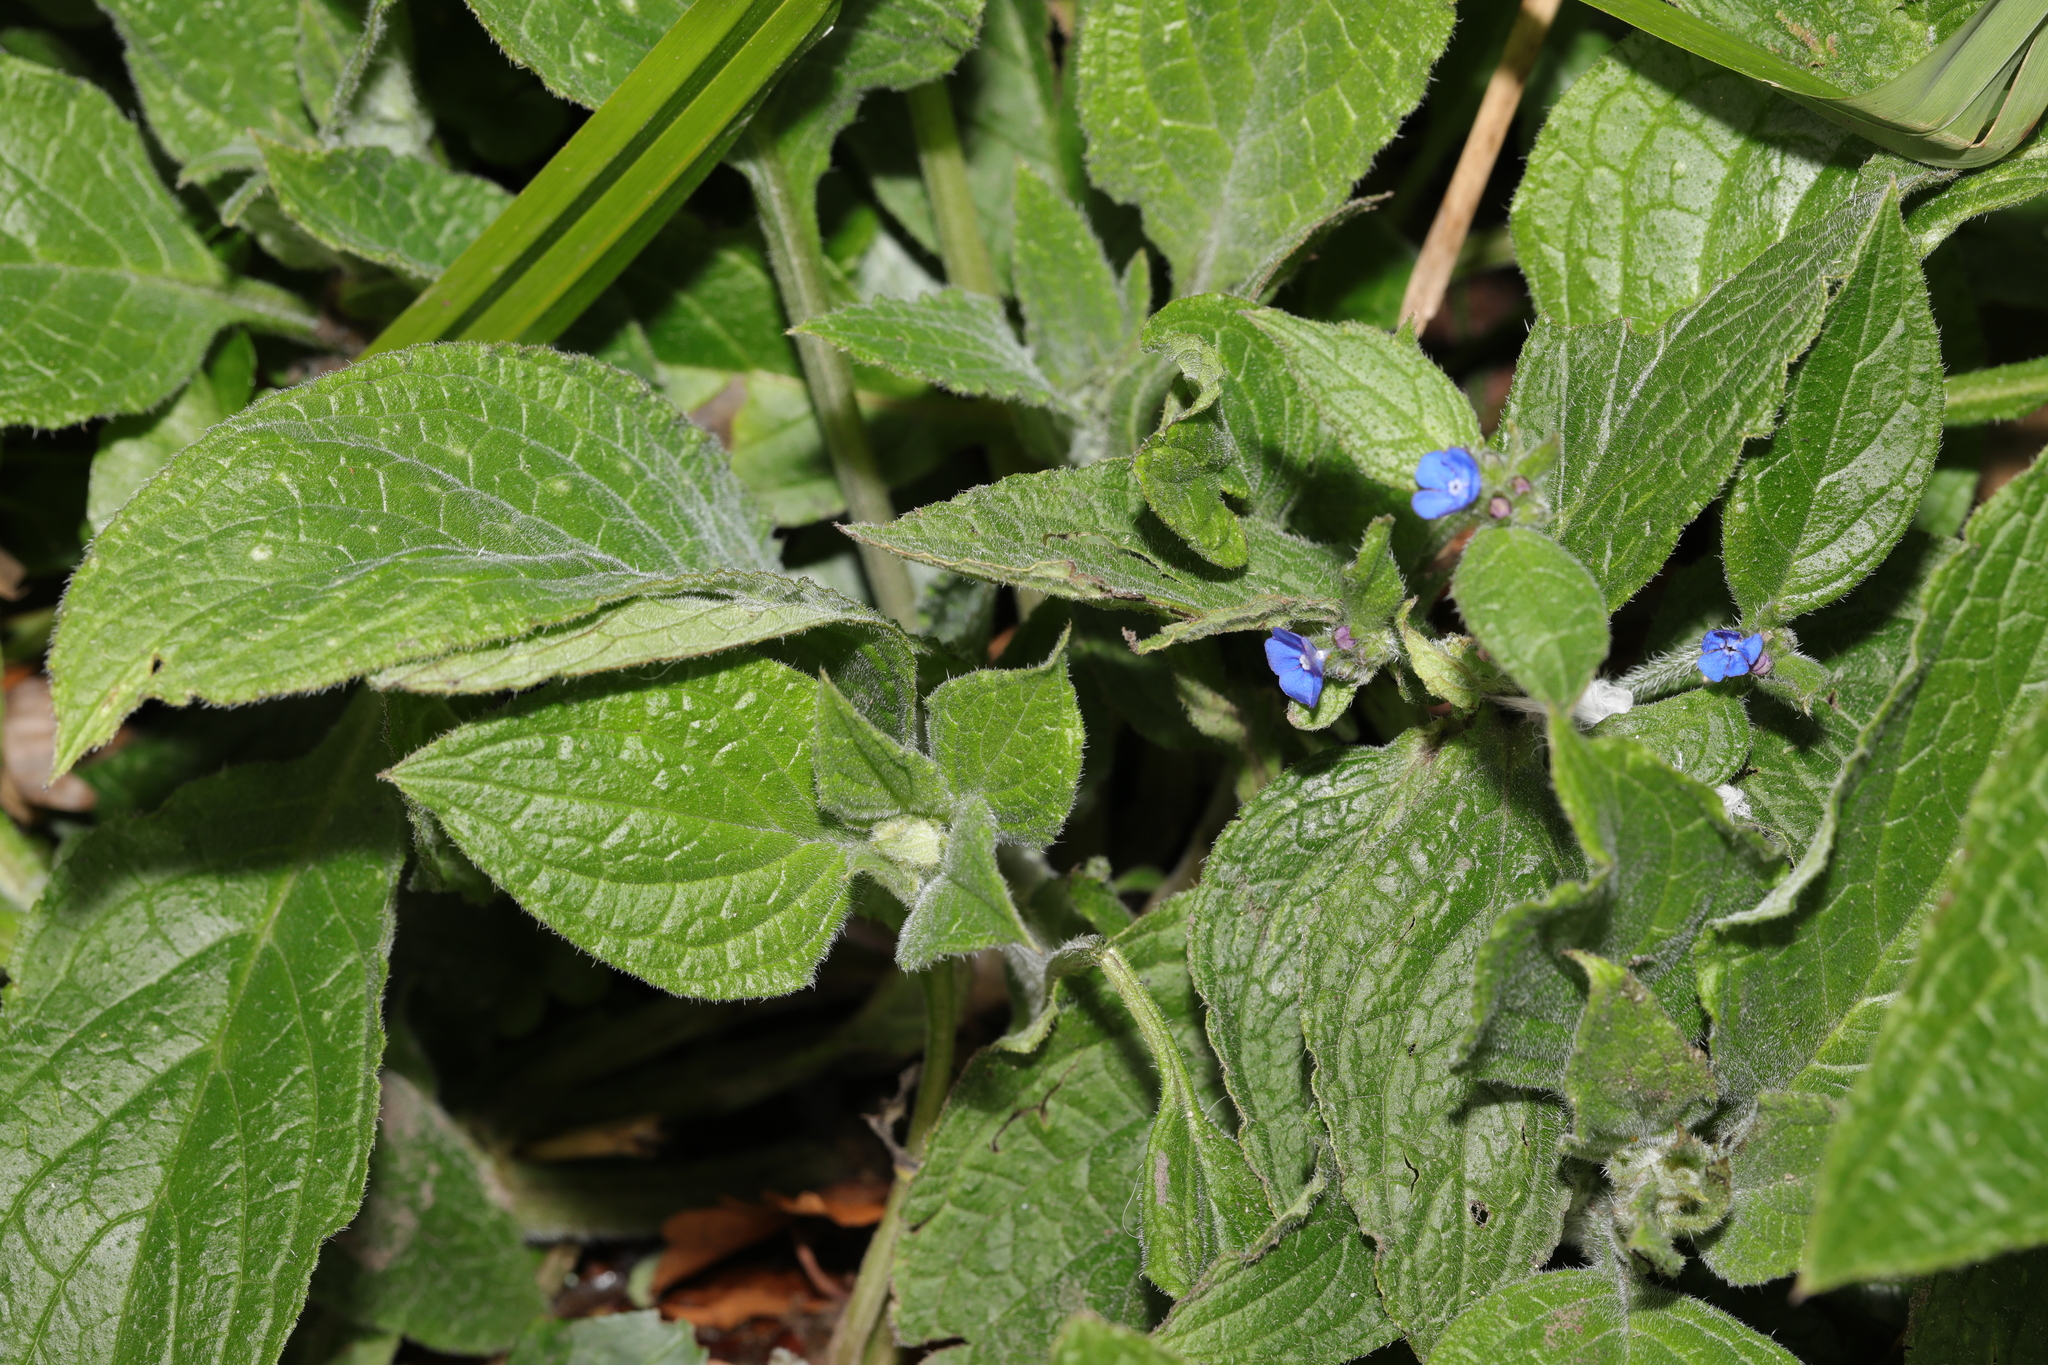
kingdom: Plantae
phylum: Tracheophyta
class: Magnoliopsida
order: Boraginales
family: Boraginaceae
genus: Pentaglottis
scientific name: Pentaglottis sempervirens
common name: Green alkanet
